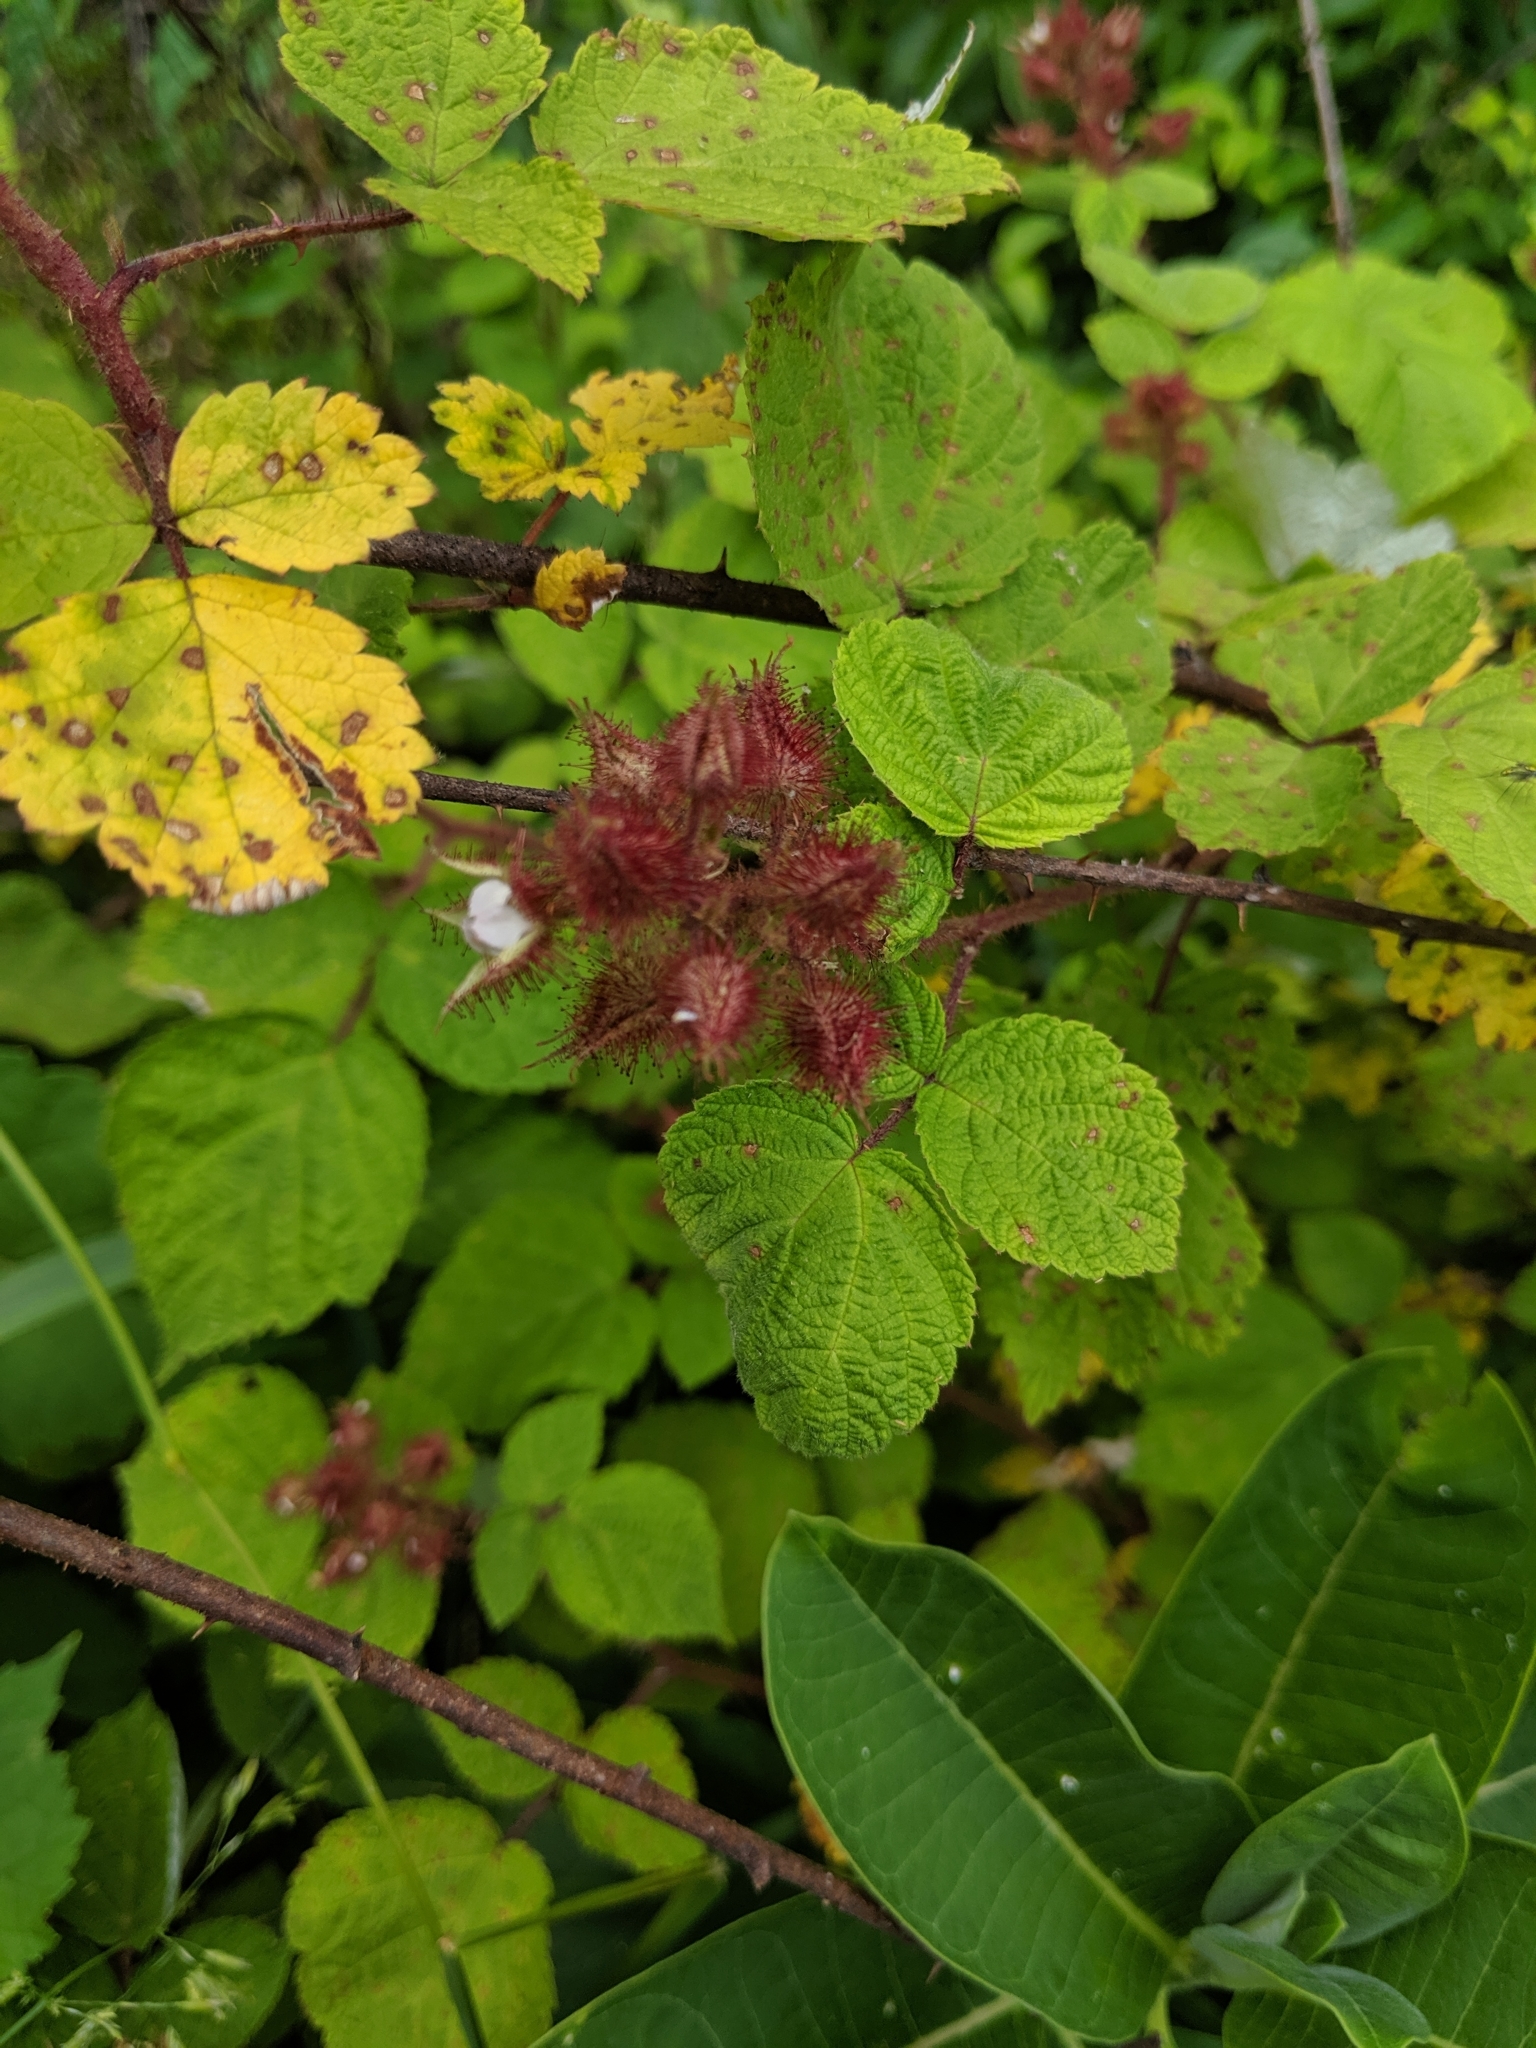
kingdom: Plantae
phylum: Tracheophyta
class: Magnoliopsida
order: Rosales
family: Rosaceae
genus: Rubus
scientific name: Rubus phoenicolasius
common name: Japanese wineberry
